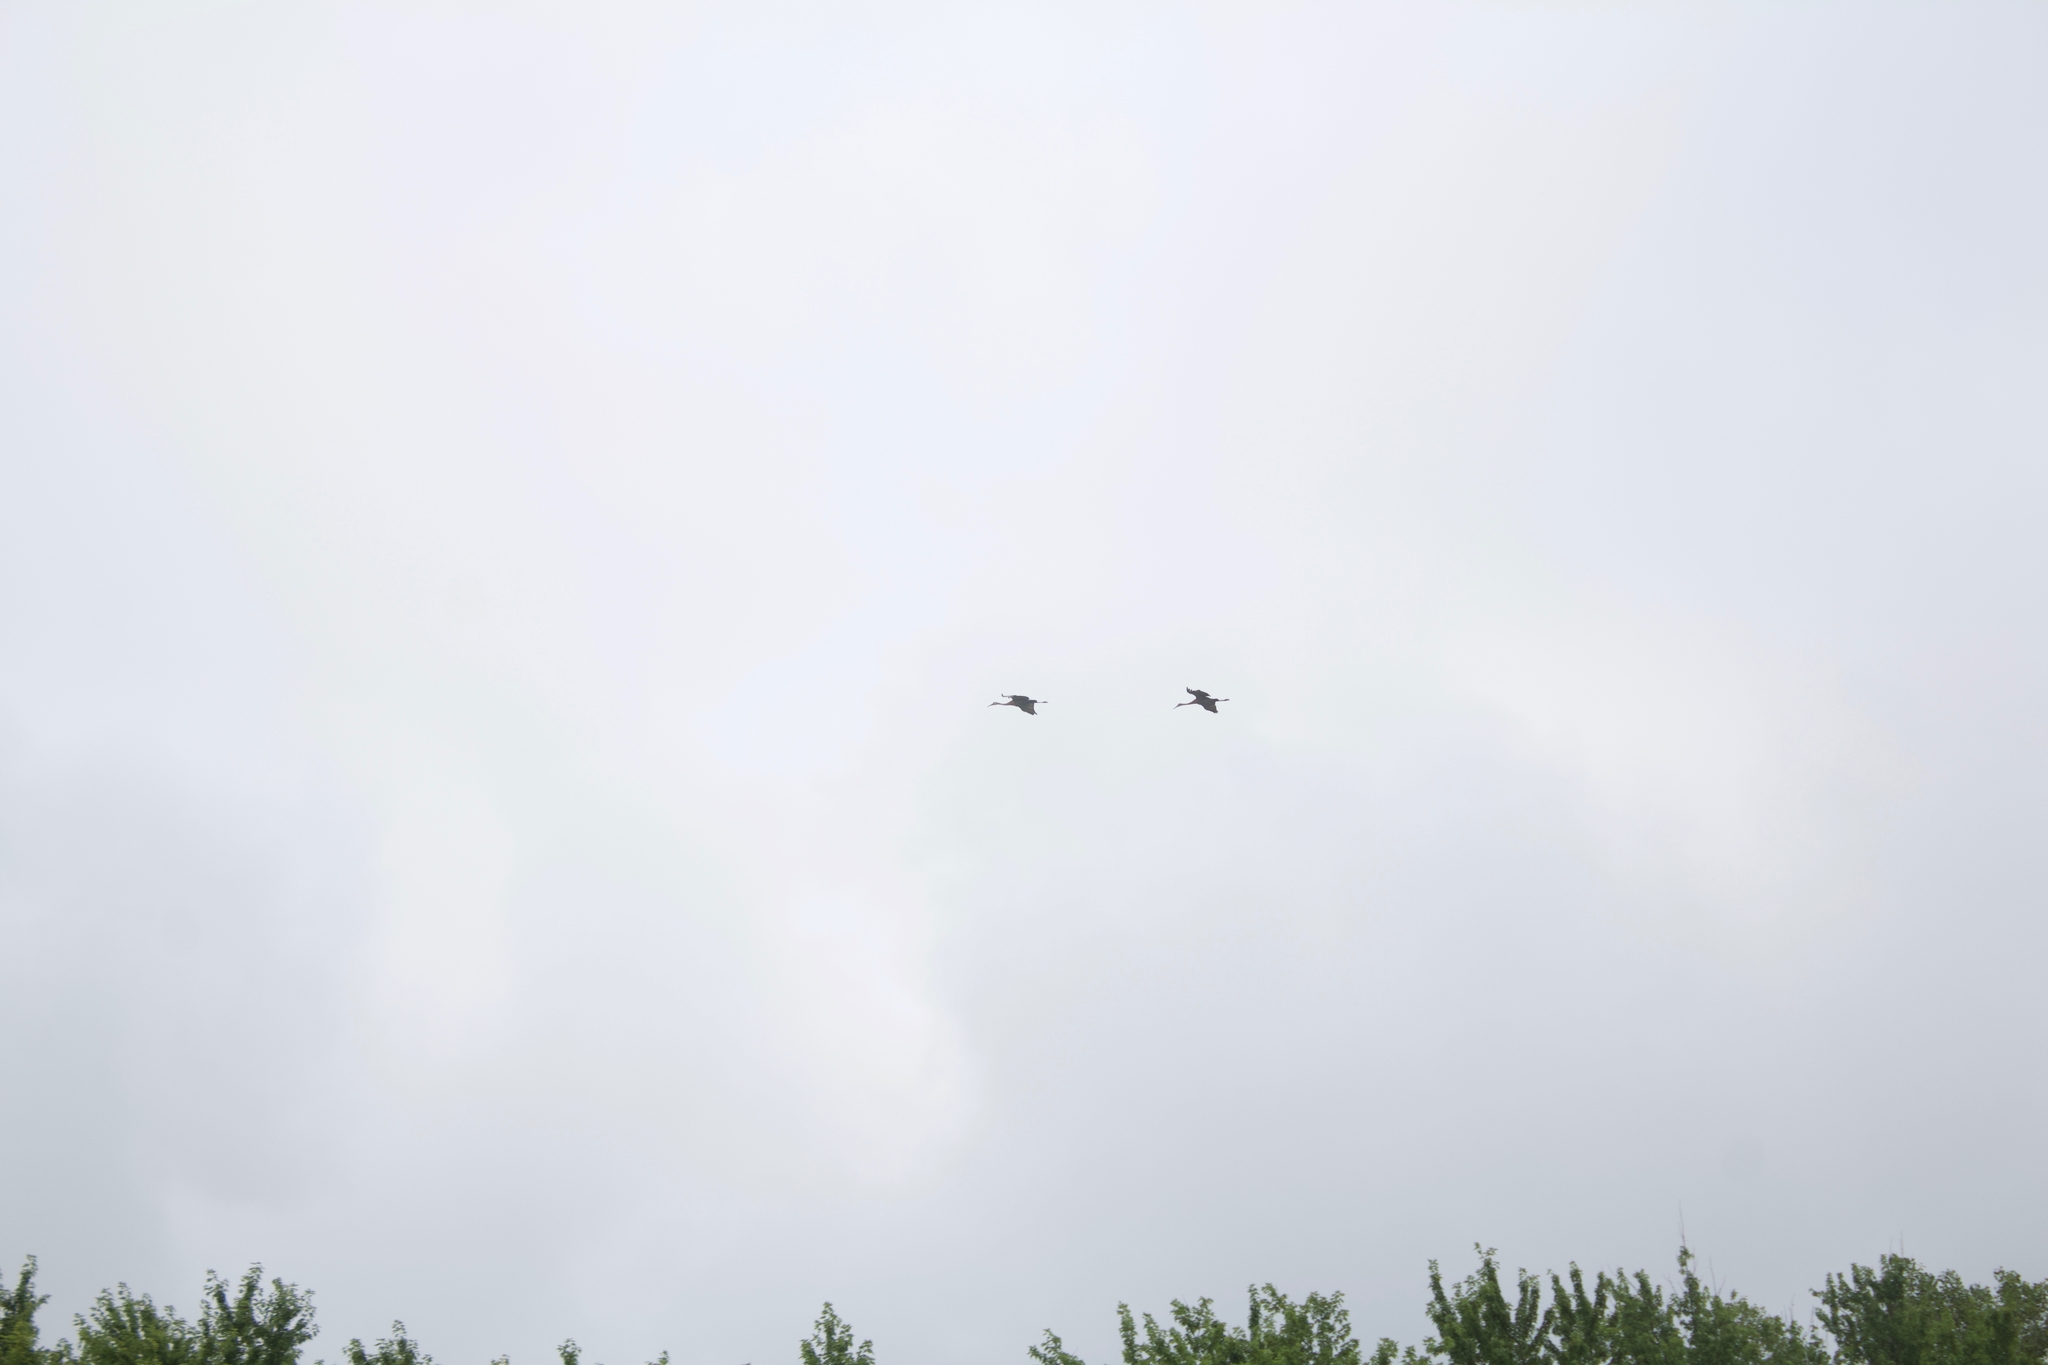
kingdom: Animalia
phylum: Chordata
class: Aves
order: Gruiformes
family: Gruidae
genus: Grus
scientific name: Grus canadensis
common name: Sandhill crane
